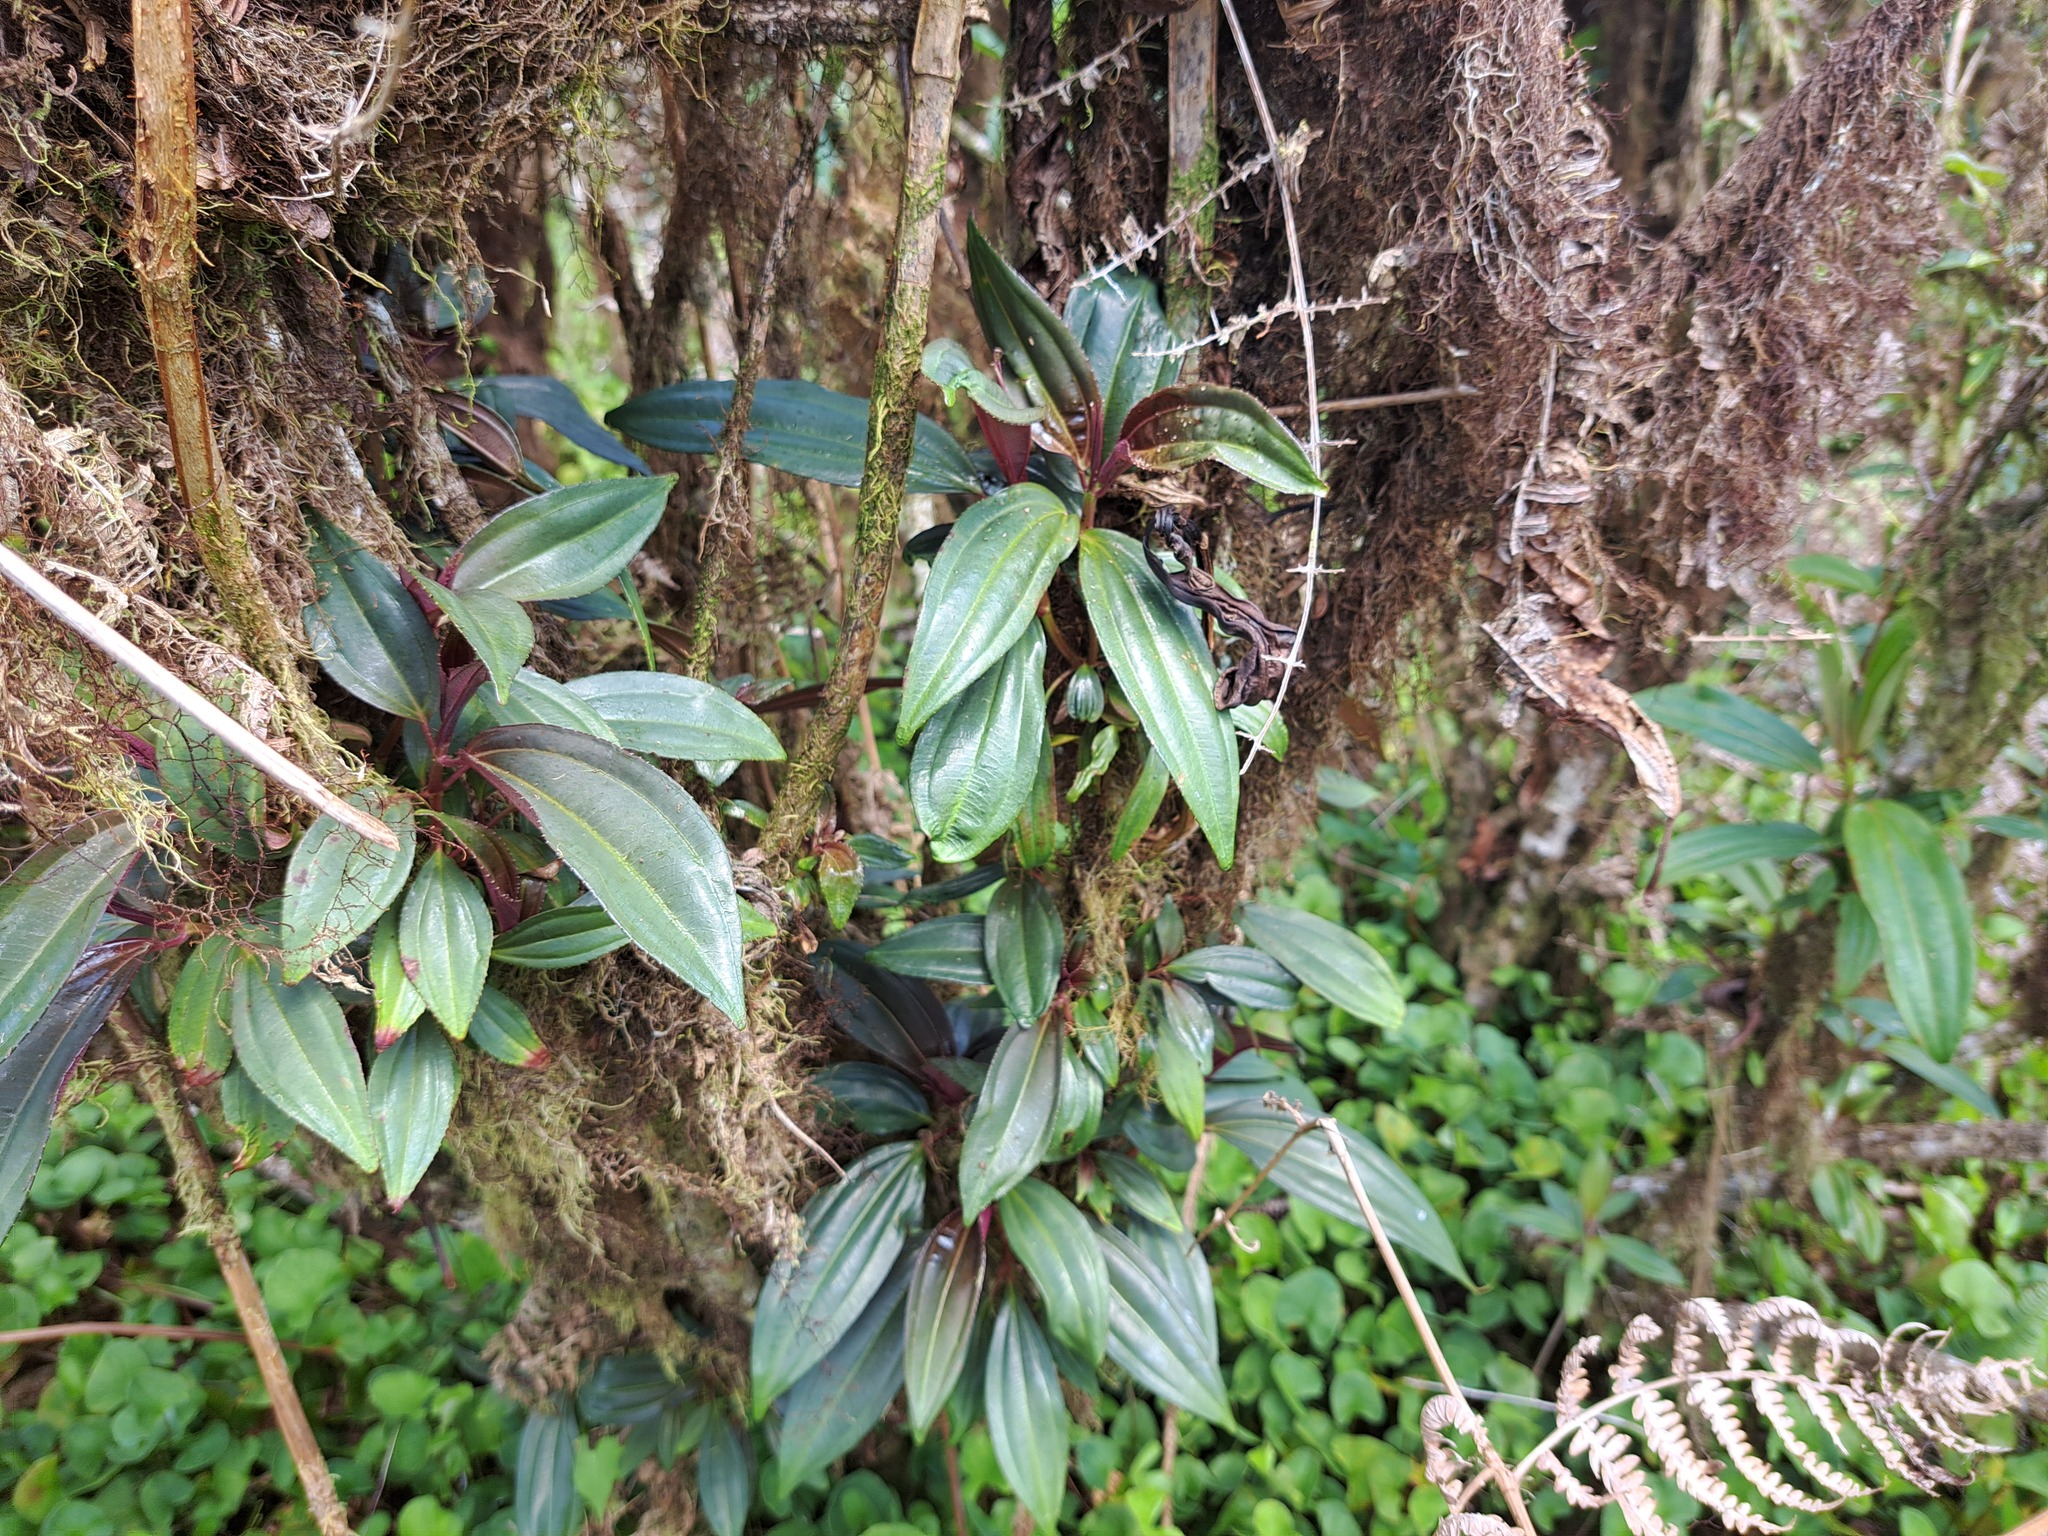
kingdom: Plantae
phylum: Tracheophyta
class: Magnoliopsida
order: Myrtales
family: Melastomataceae
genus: Miconia
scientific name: Miconia robinsoniana
